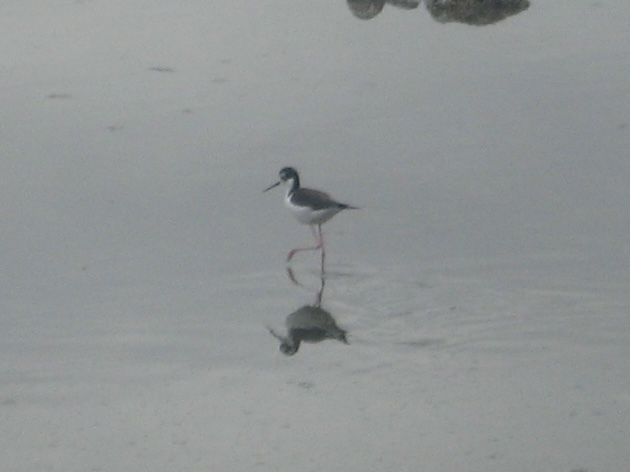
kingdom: Animalia
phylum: Chordata
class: Aves
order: Charadriiformes
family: Recurvirostridae
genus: Himantopus
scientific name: Himantopus mexicanus
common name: Black-necked stilt
